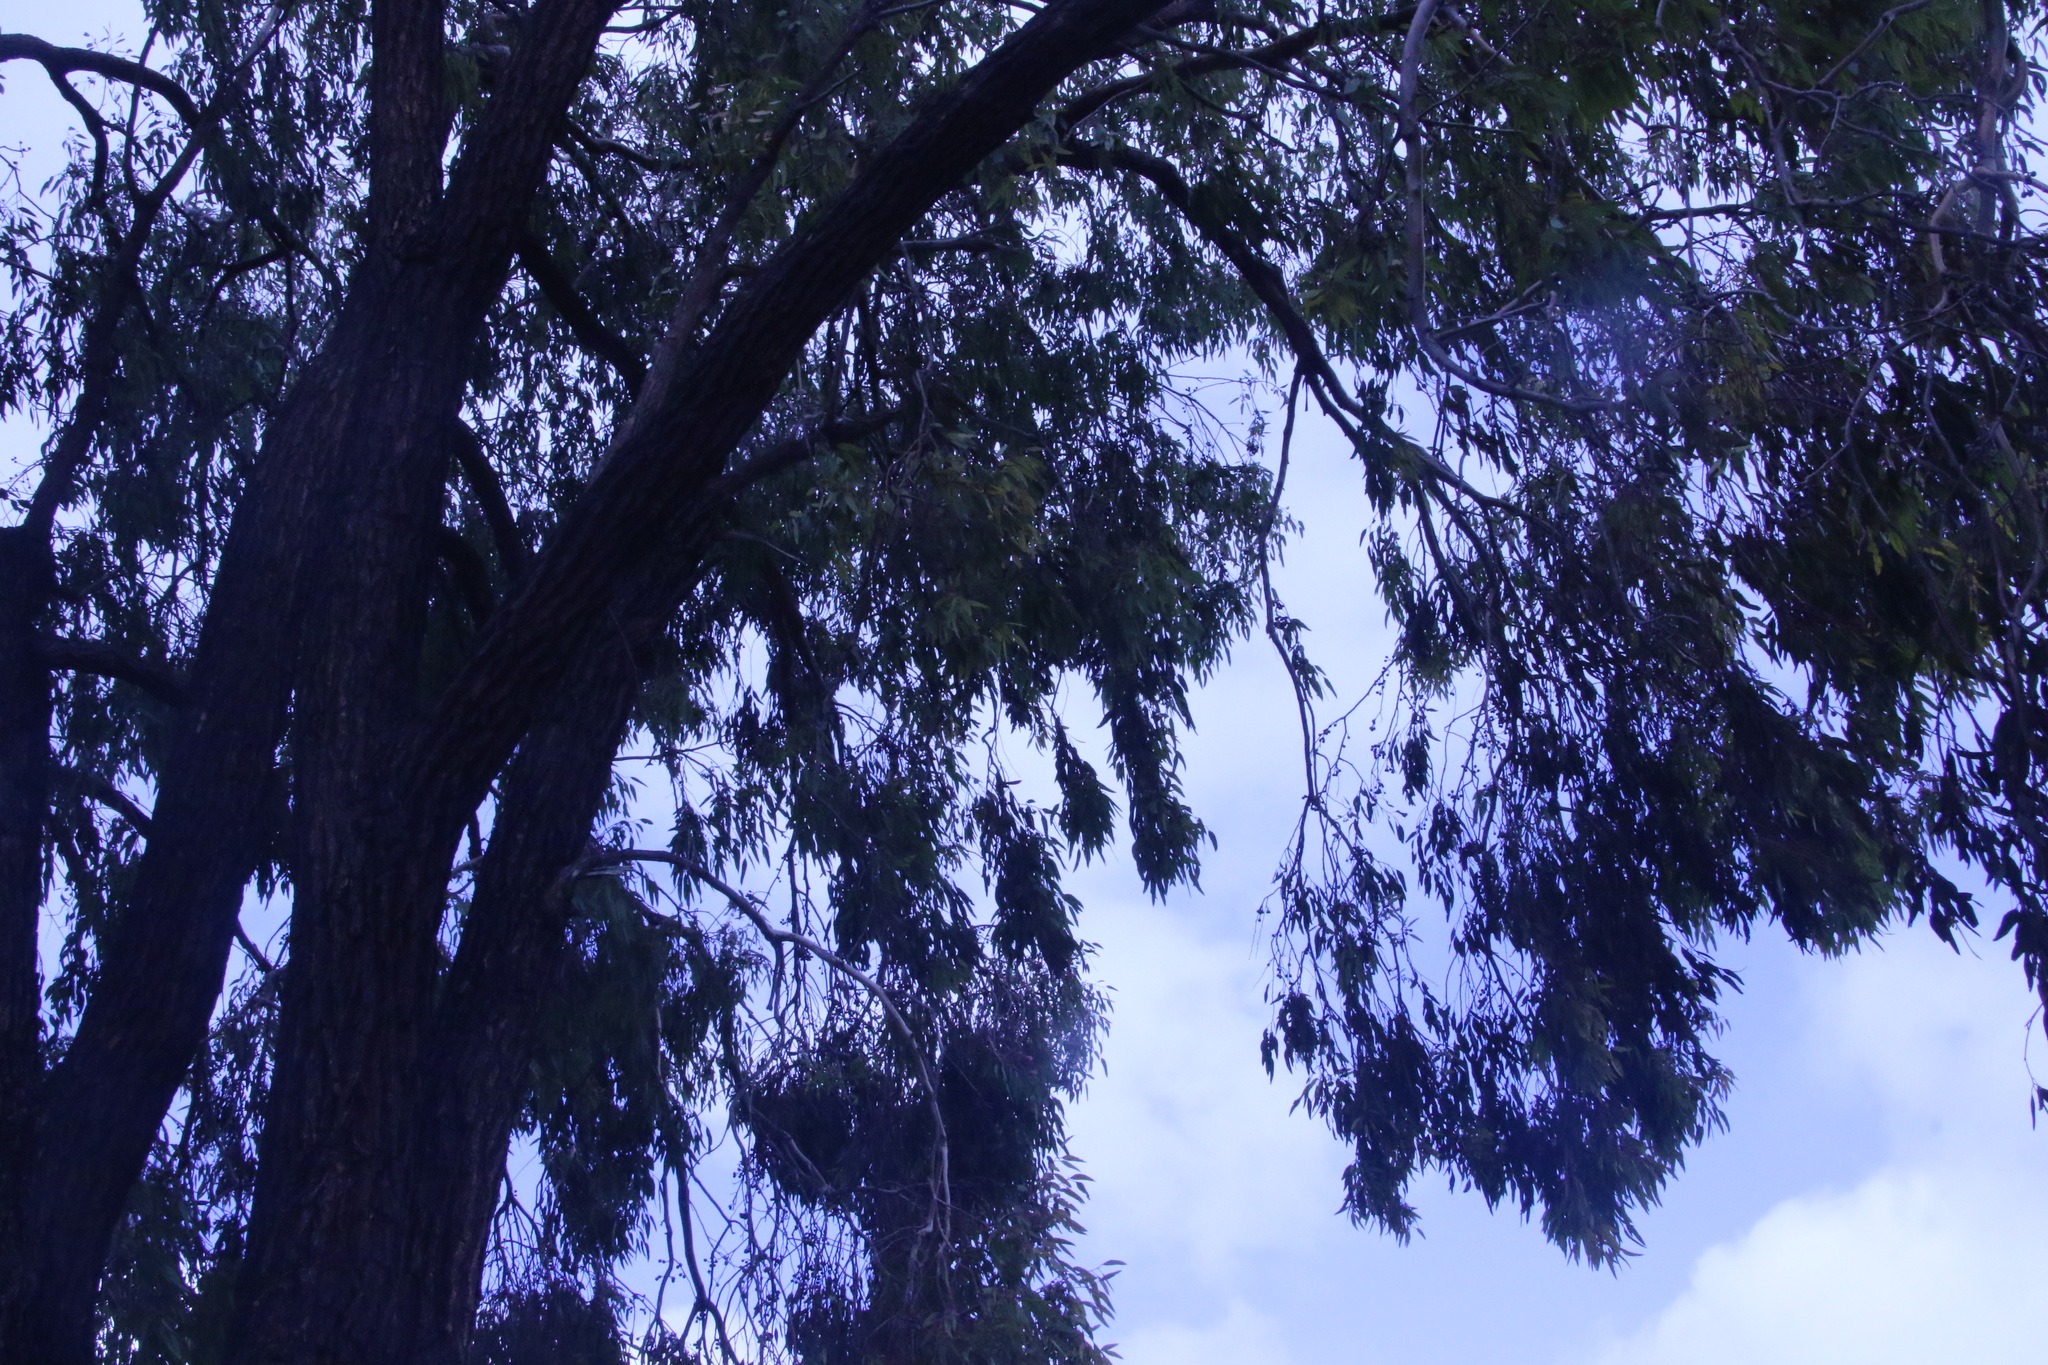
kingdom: Plantae
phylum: Tracheophyta
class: Magnoliopsida
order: Myrtales
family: Myrtaceae
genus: Eucalyptus
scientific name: Eucalyptus sideroxylon
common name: Red ironbark
